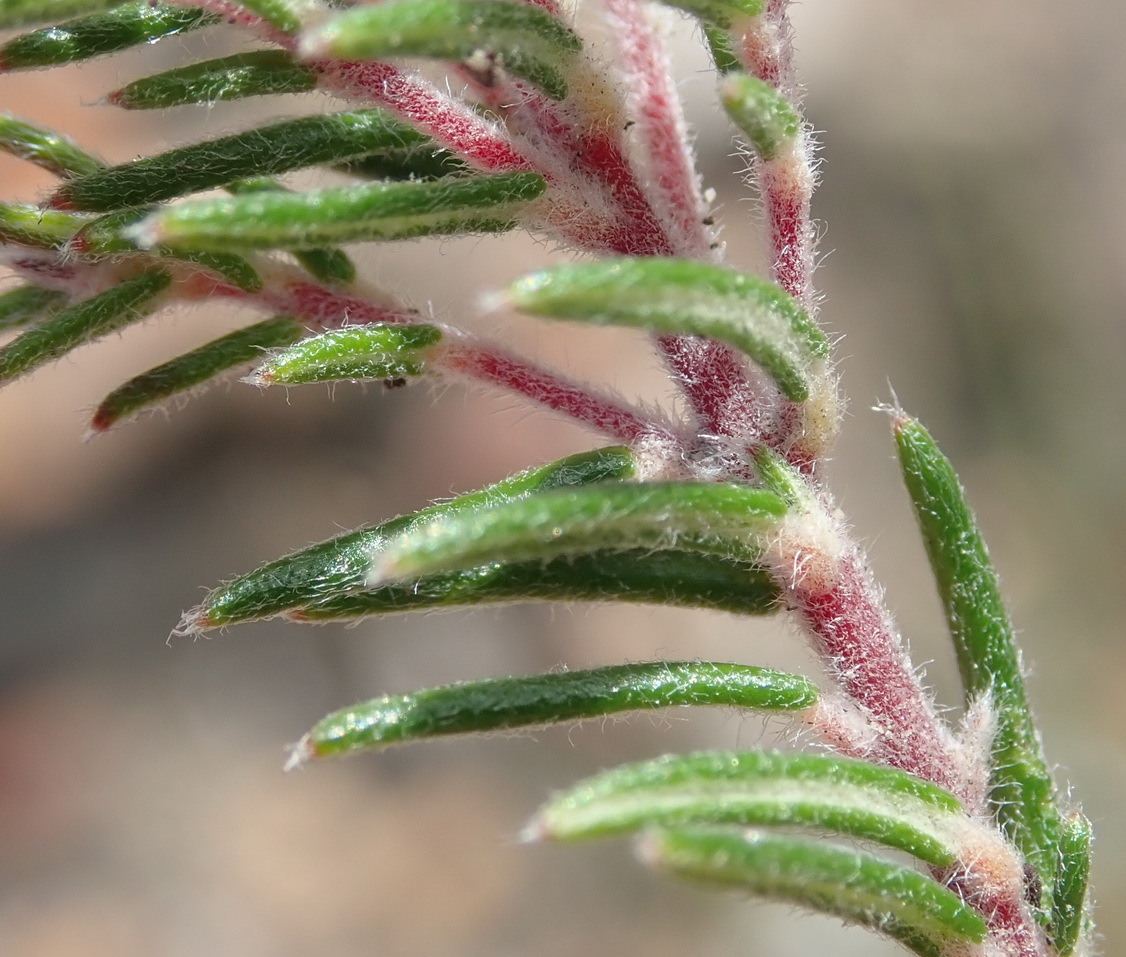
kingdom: Plantae
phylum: Tracheophyta
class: Magnoliopsida
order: Rosales
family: Rhamnaceae
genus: Phylica
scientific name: Phylica karroica
